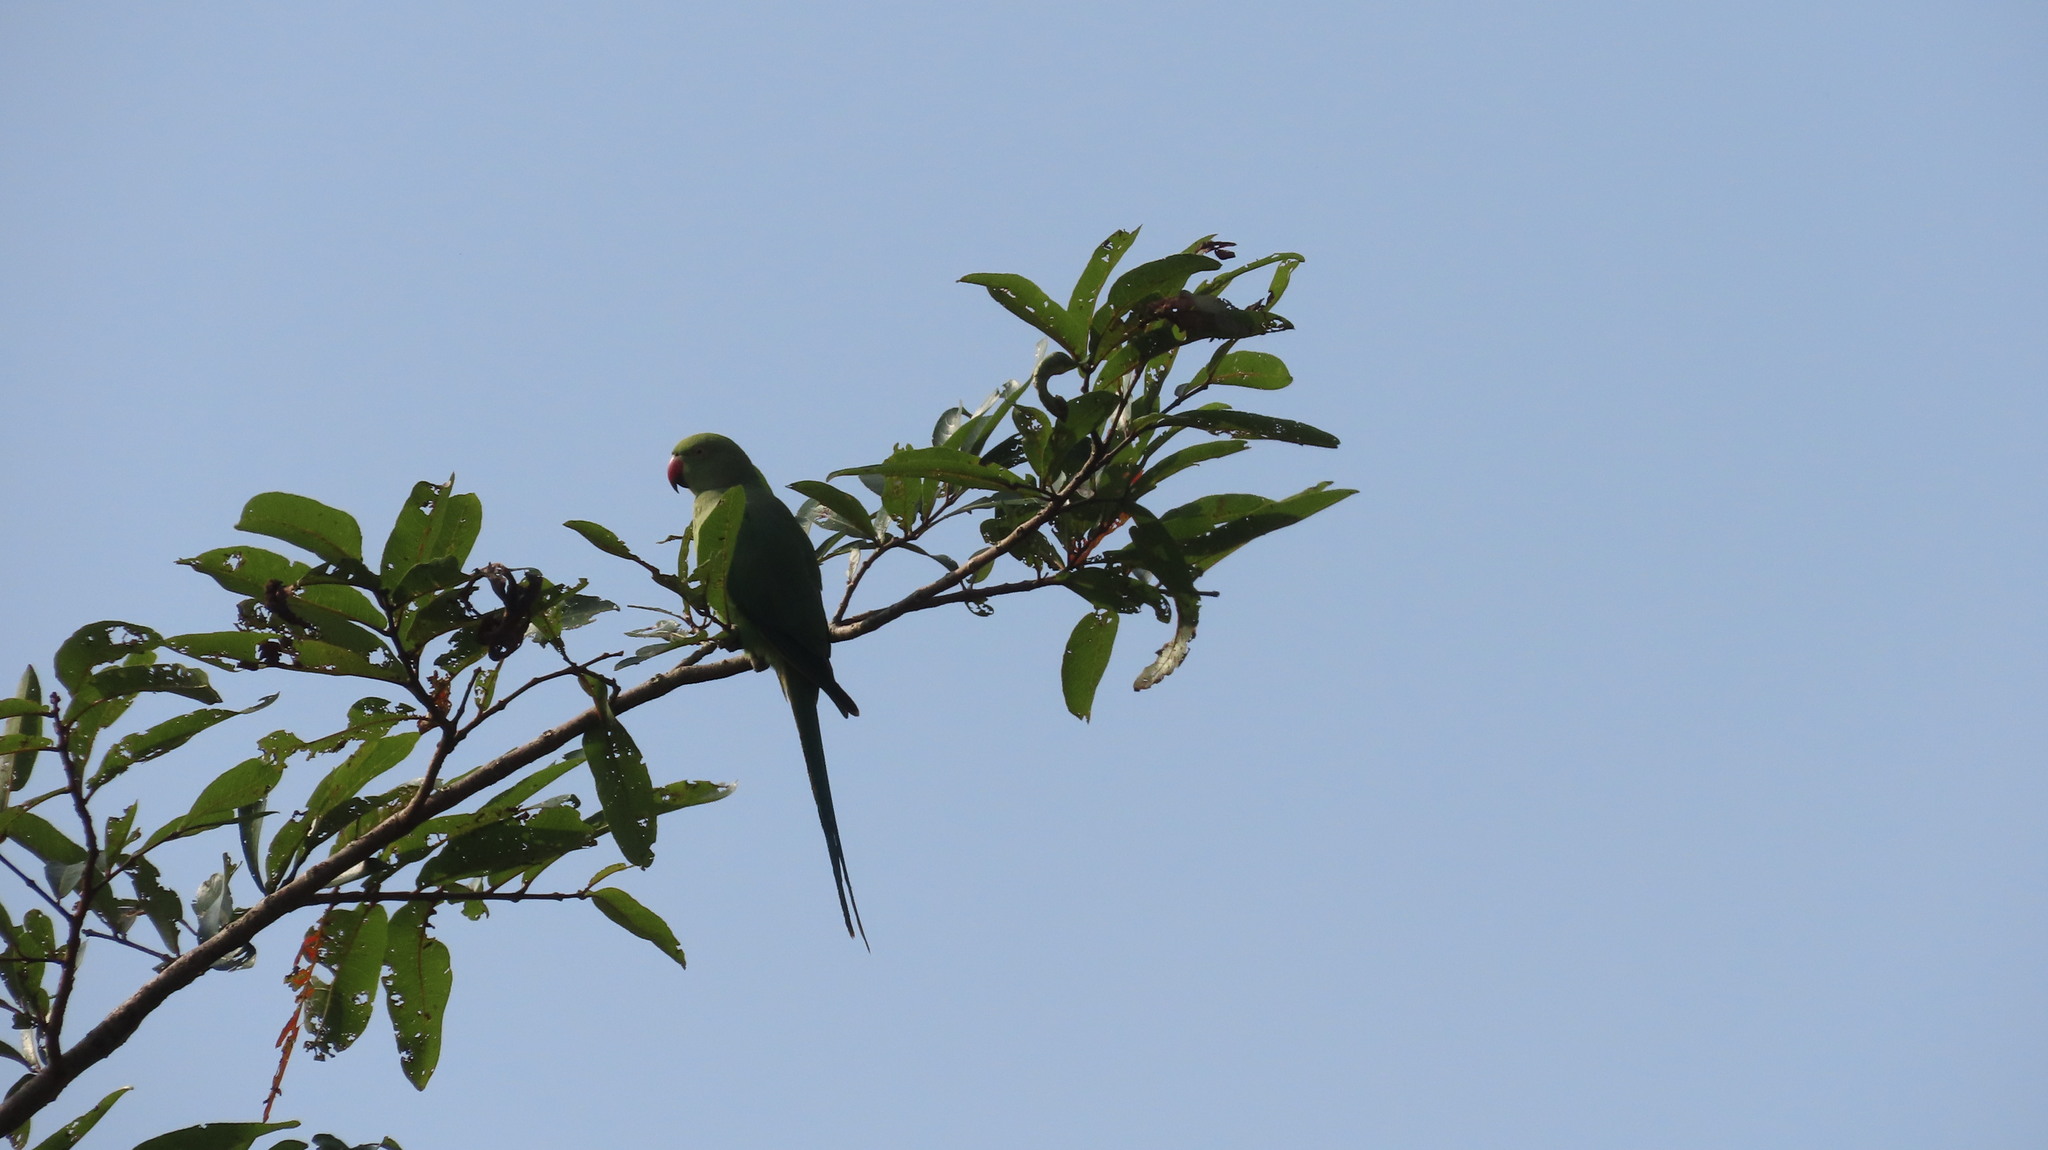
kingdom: Animalia
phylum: Chordata
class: Aves
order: Psittaciformes
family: Psittacidae
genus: Psittacula
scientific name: Psittacula krameri
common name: Rose-ringed parakeet
